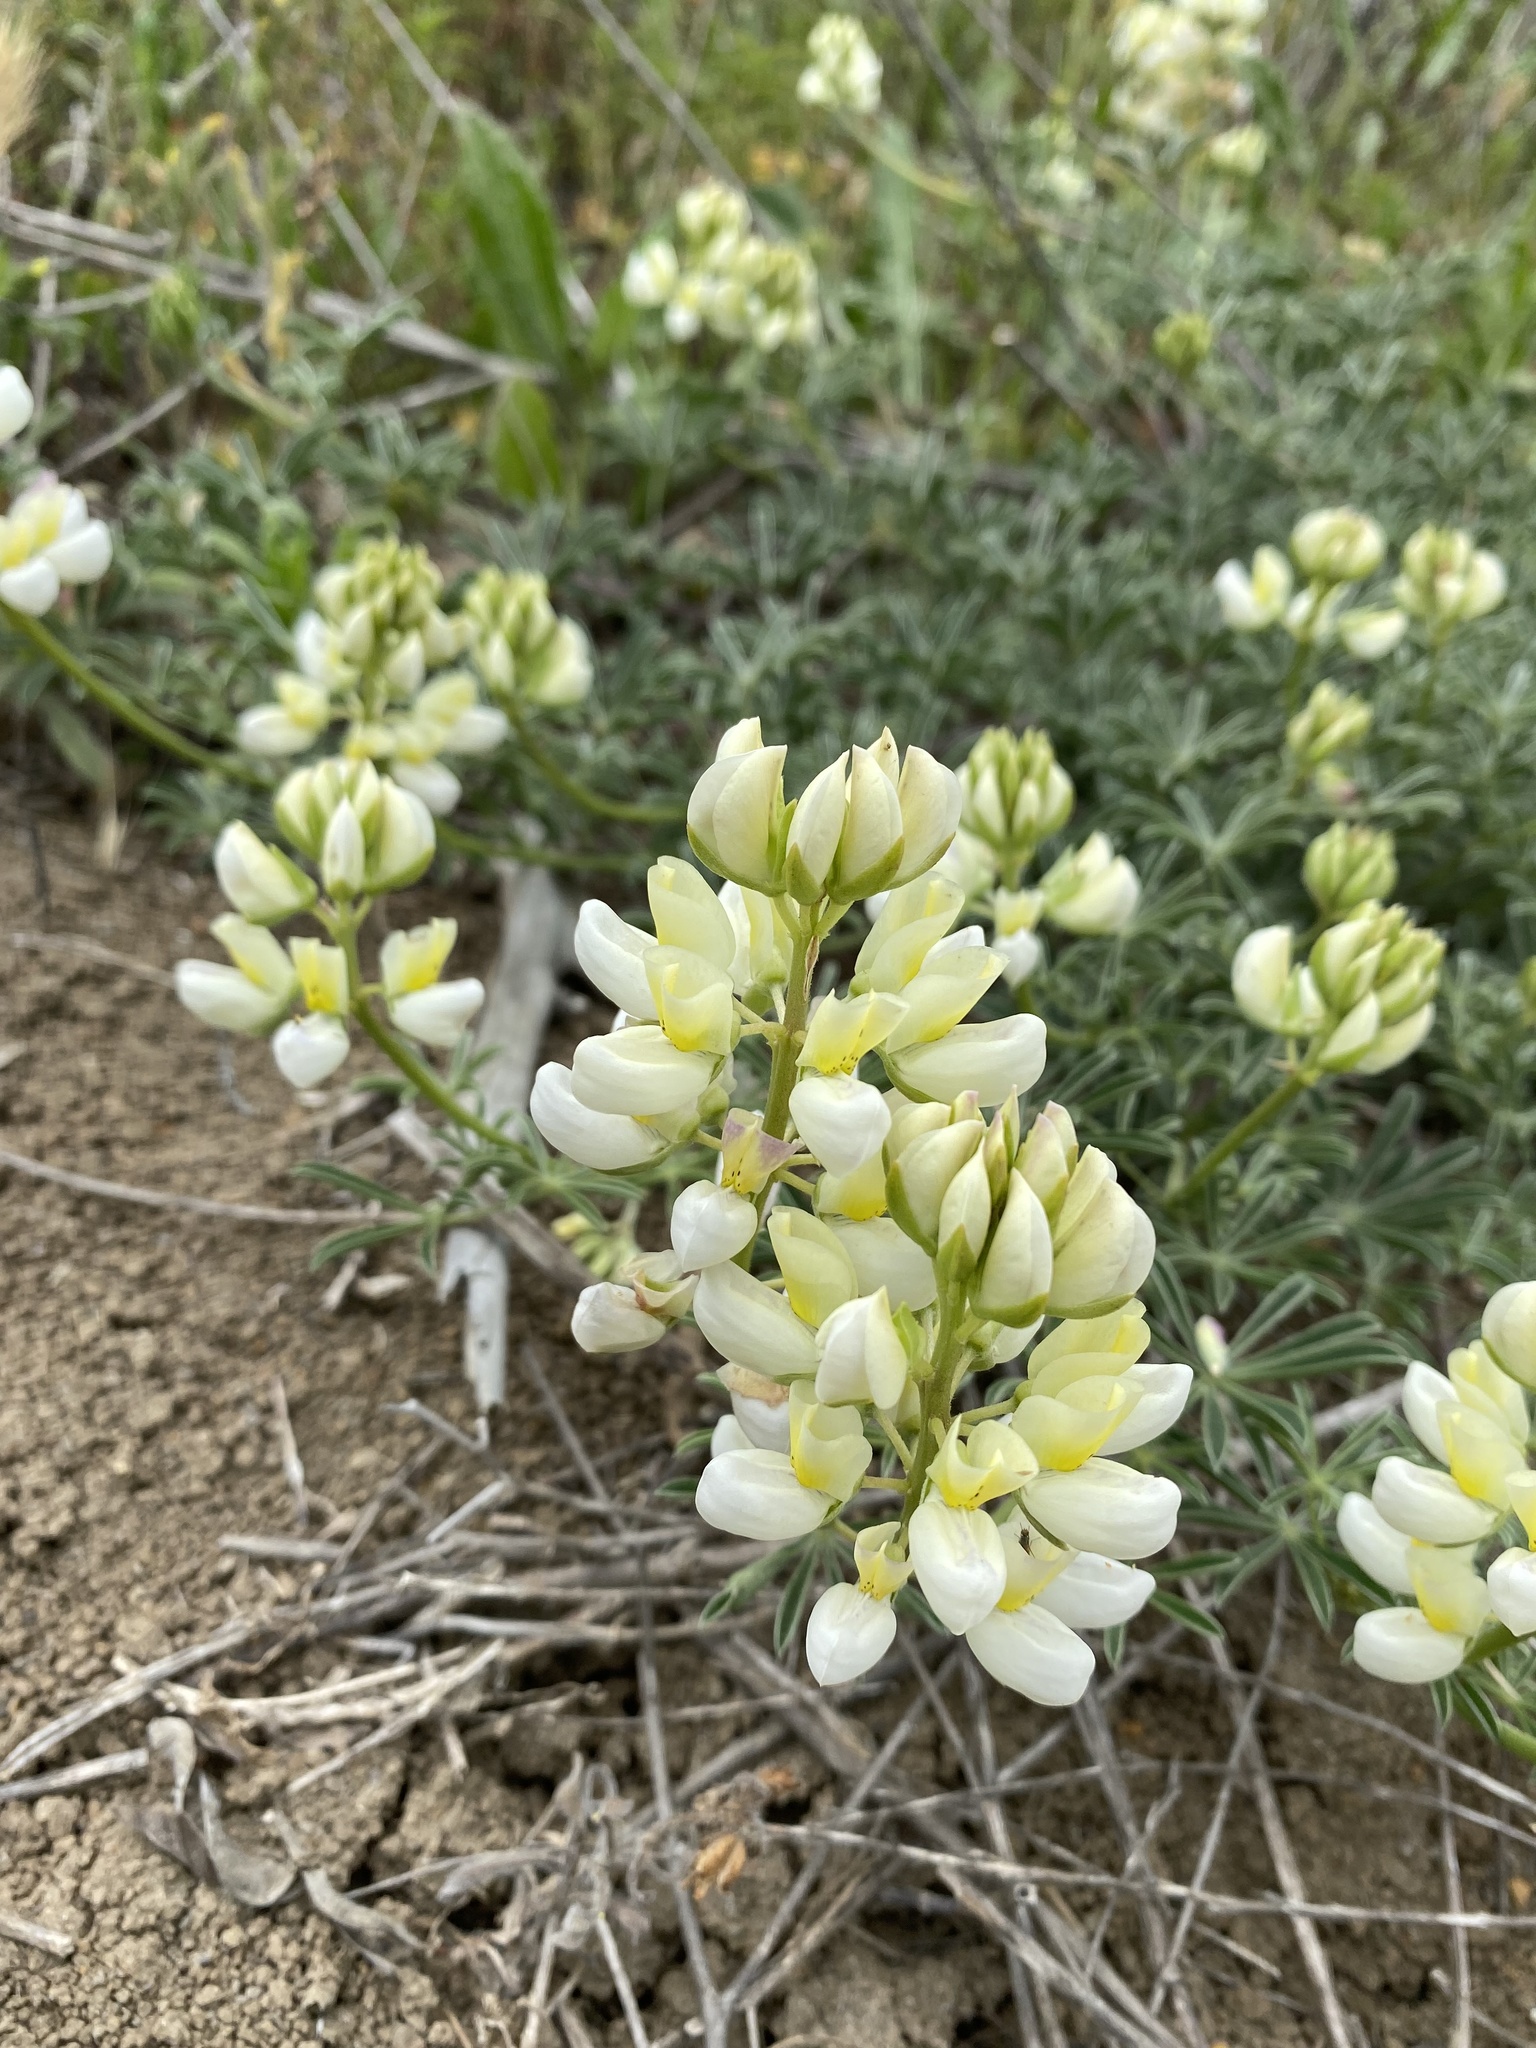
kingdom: Plantae
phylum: Tracheophyta
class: Magnoliopsida
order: Fabales
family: Fabaceae
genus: Lupinus
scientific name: Lupinus variicolor
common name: Lindley's varied lupine
